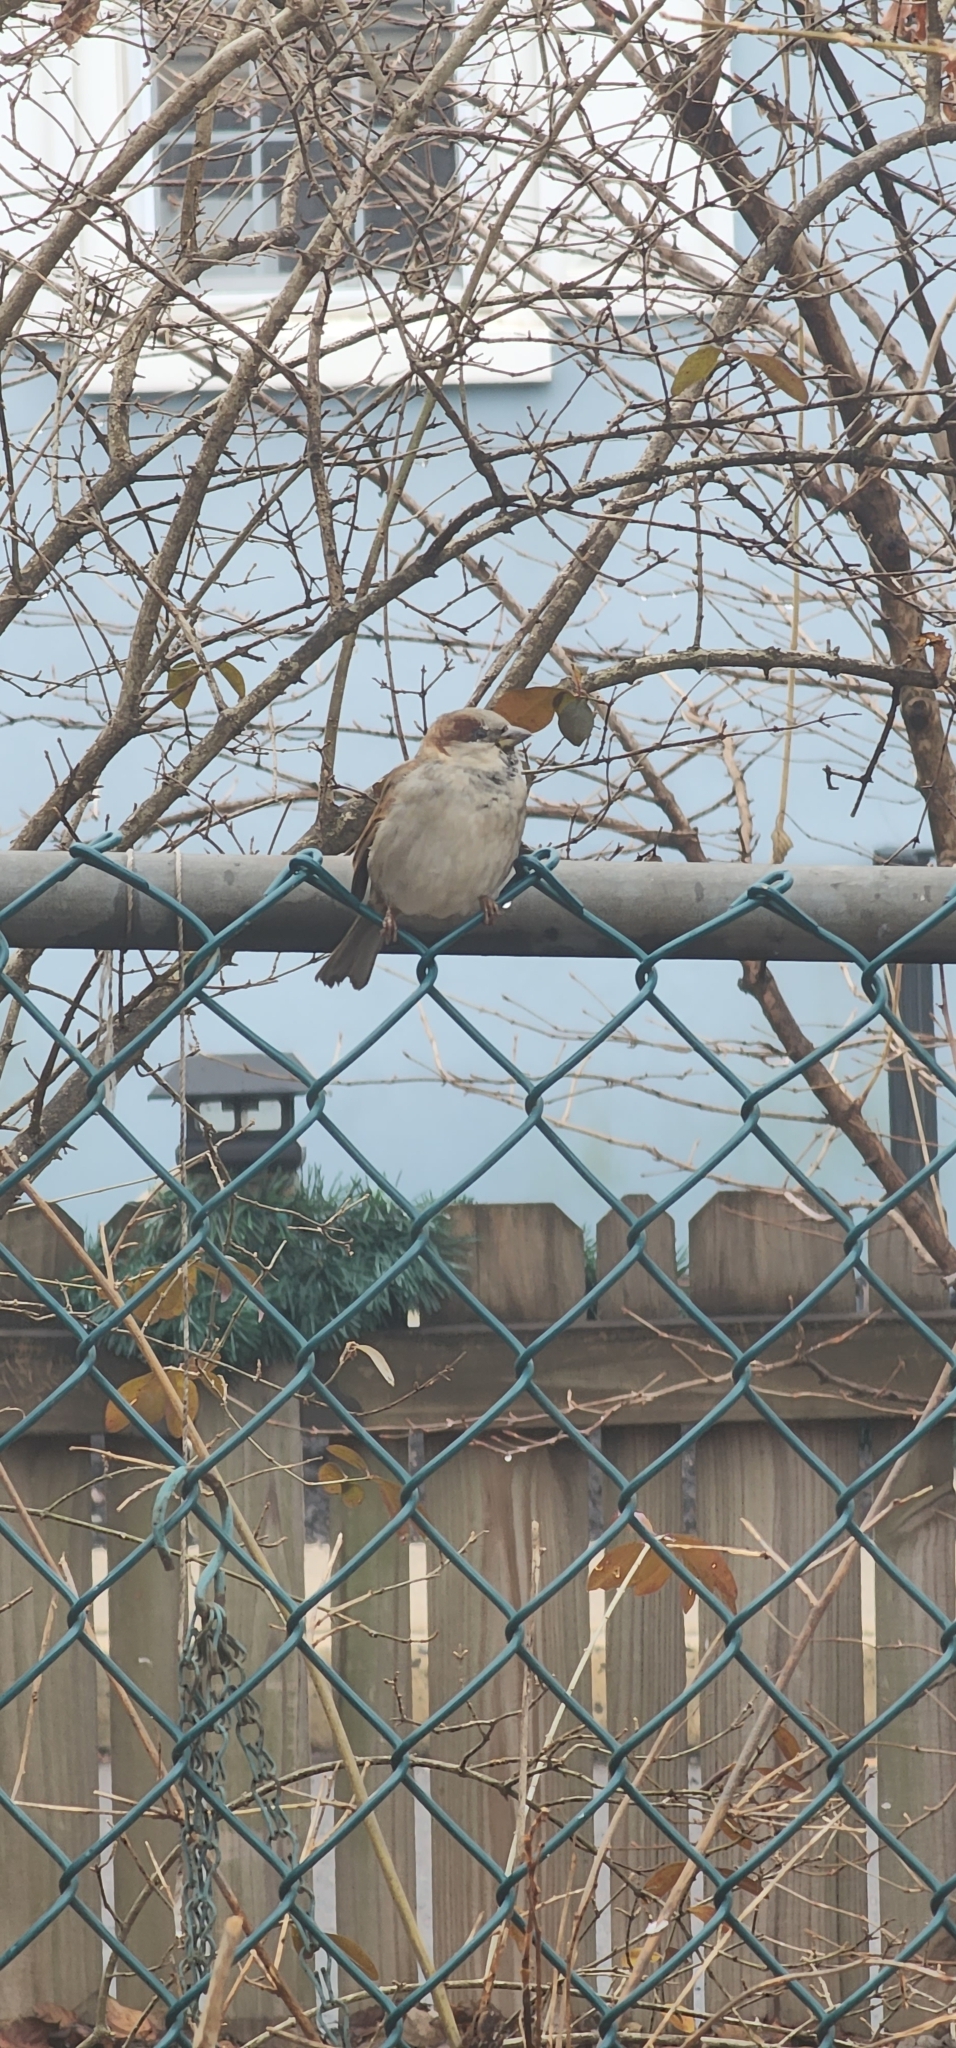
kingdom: Animalia
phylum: Chordata
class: Aves
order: Passeriformes
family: Passeridae
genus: Passer
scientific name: Passer domesticus
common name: House sparrow
